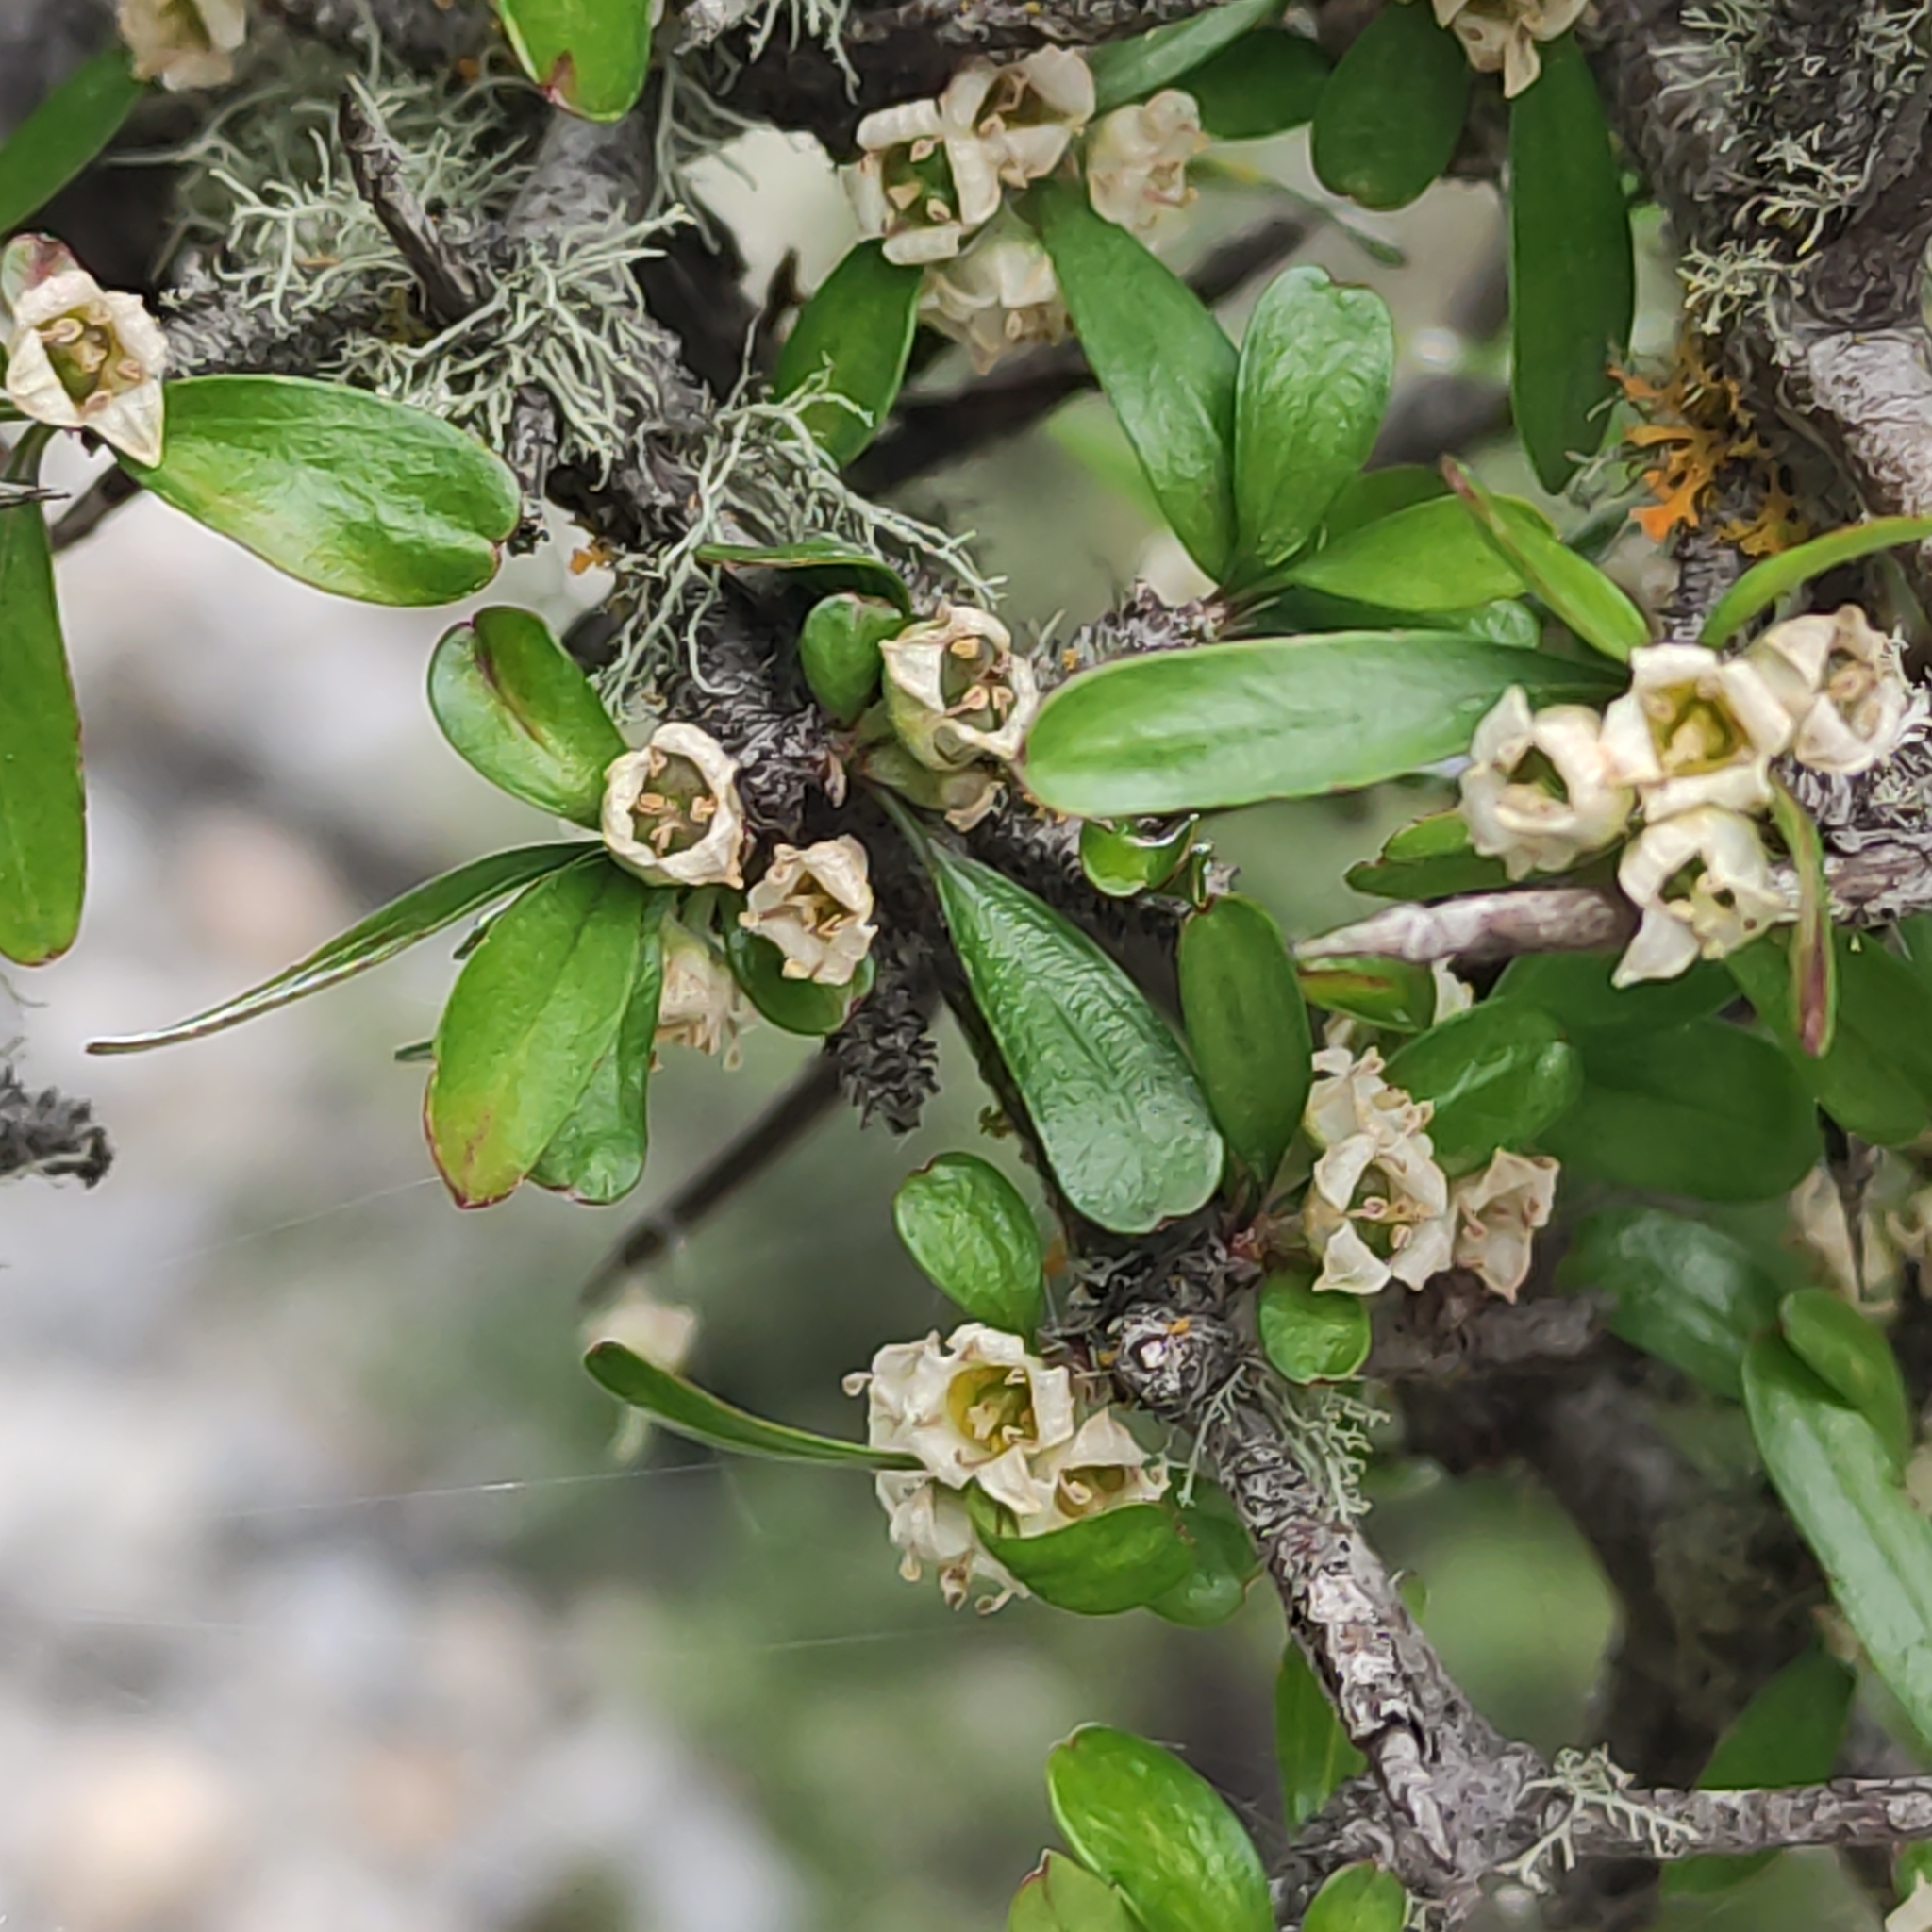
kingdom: Plantae
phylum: Tracheophyta
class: Magnoliopsida
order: Rosales
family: Rhamnaceae
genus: Discaria
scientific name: Discaria toumatou
